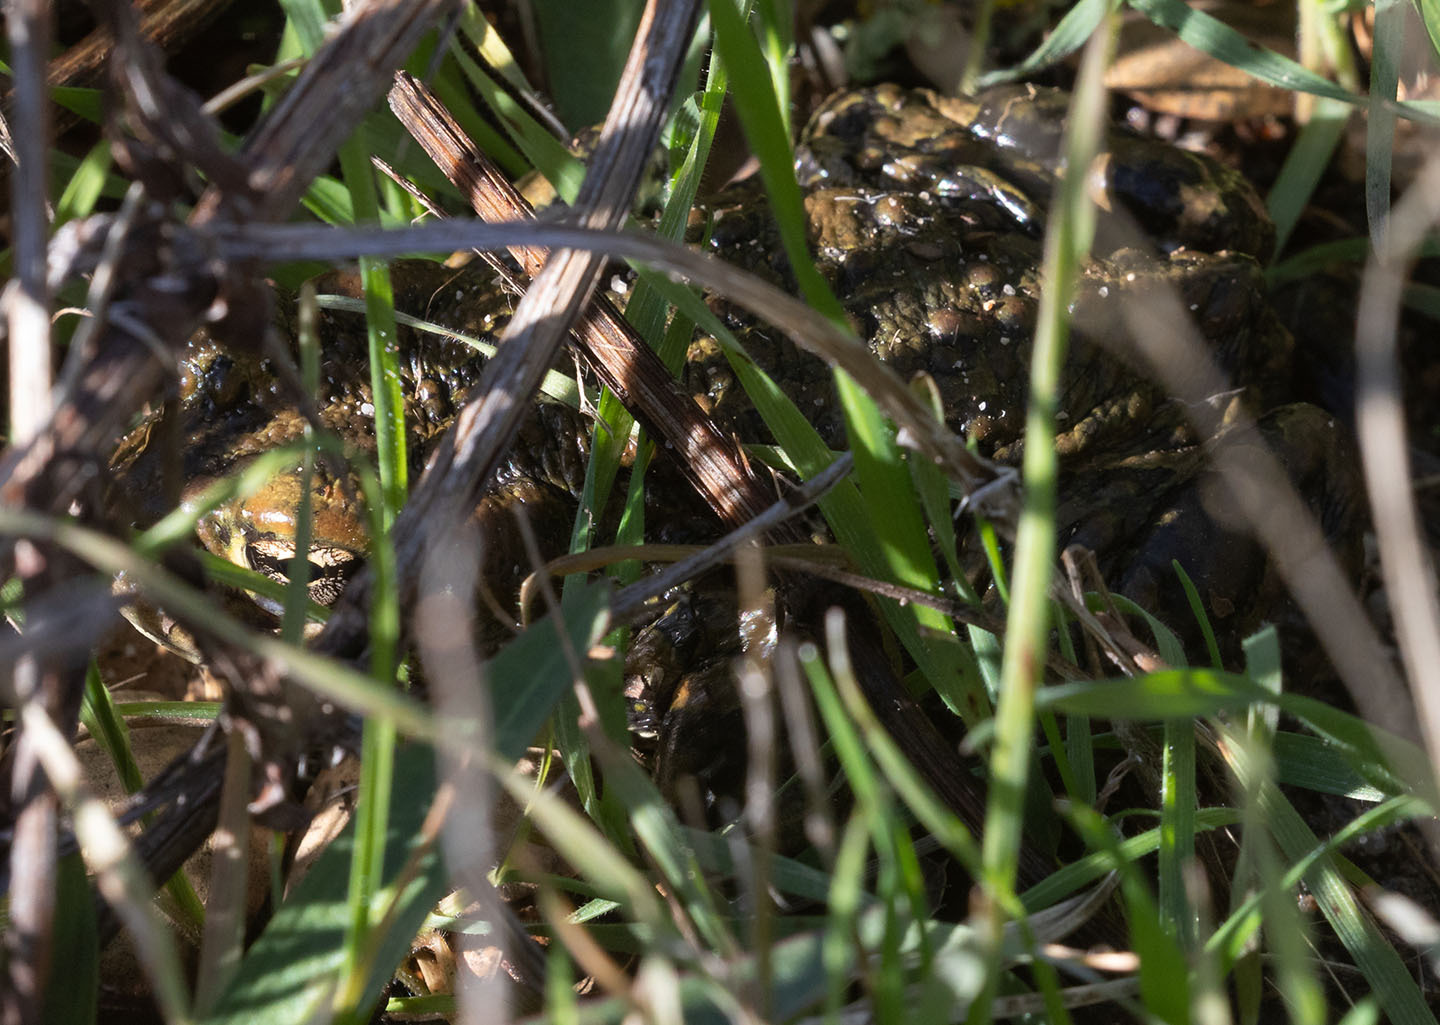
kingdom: Animalia
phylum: Chordata
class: Amphibia
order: Anura
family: Bufonidae
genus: Anaxyrus
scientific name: Anaxyrus boreas
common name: Western toad
